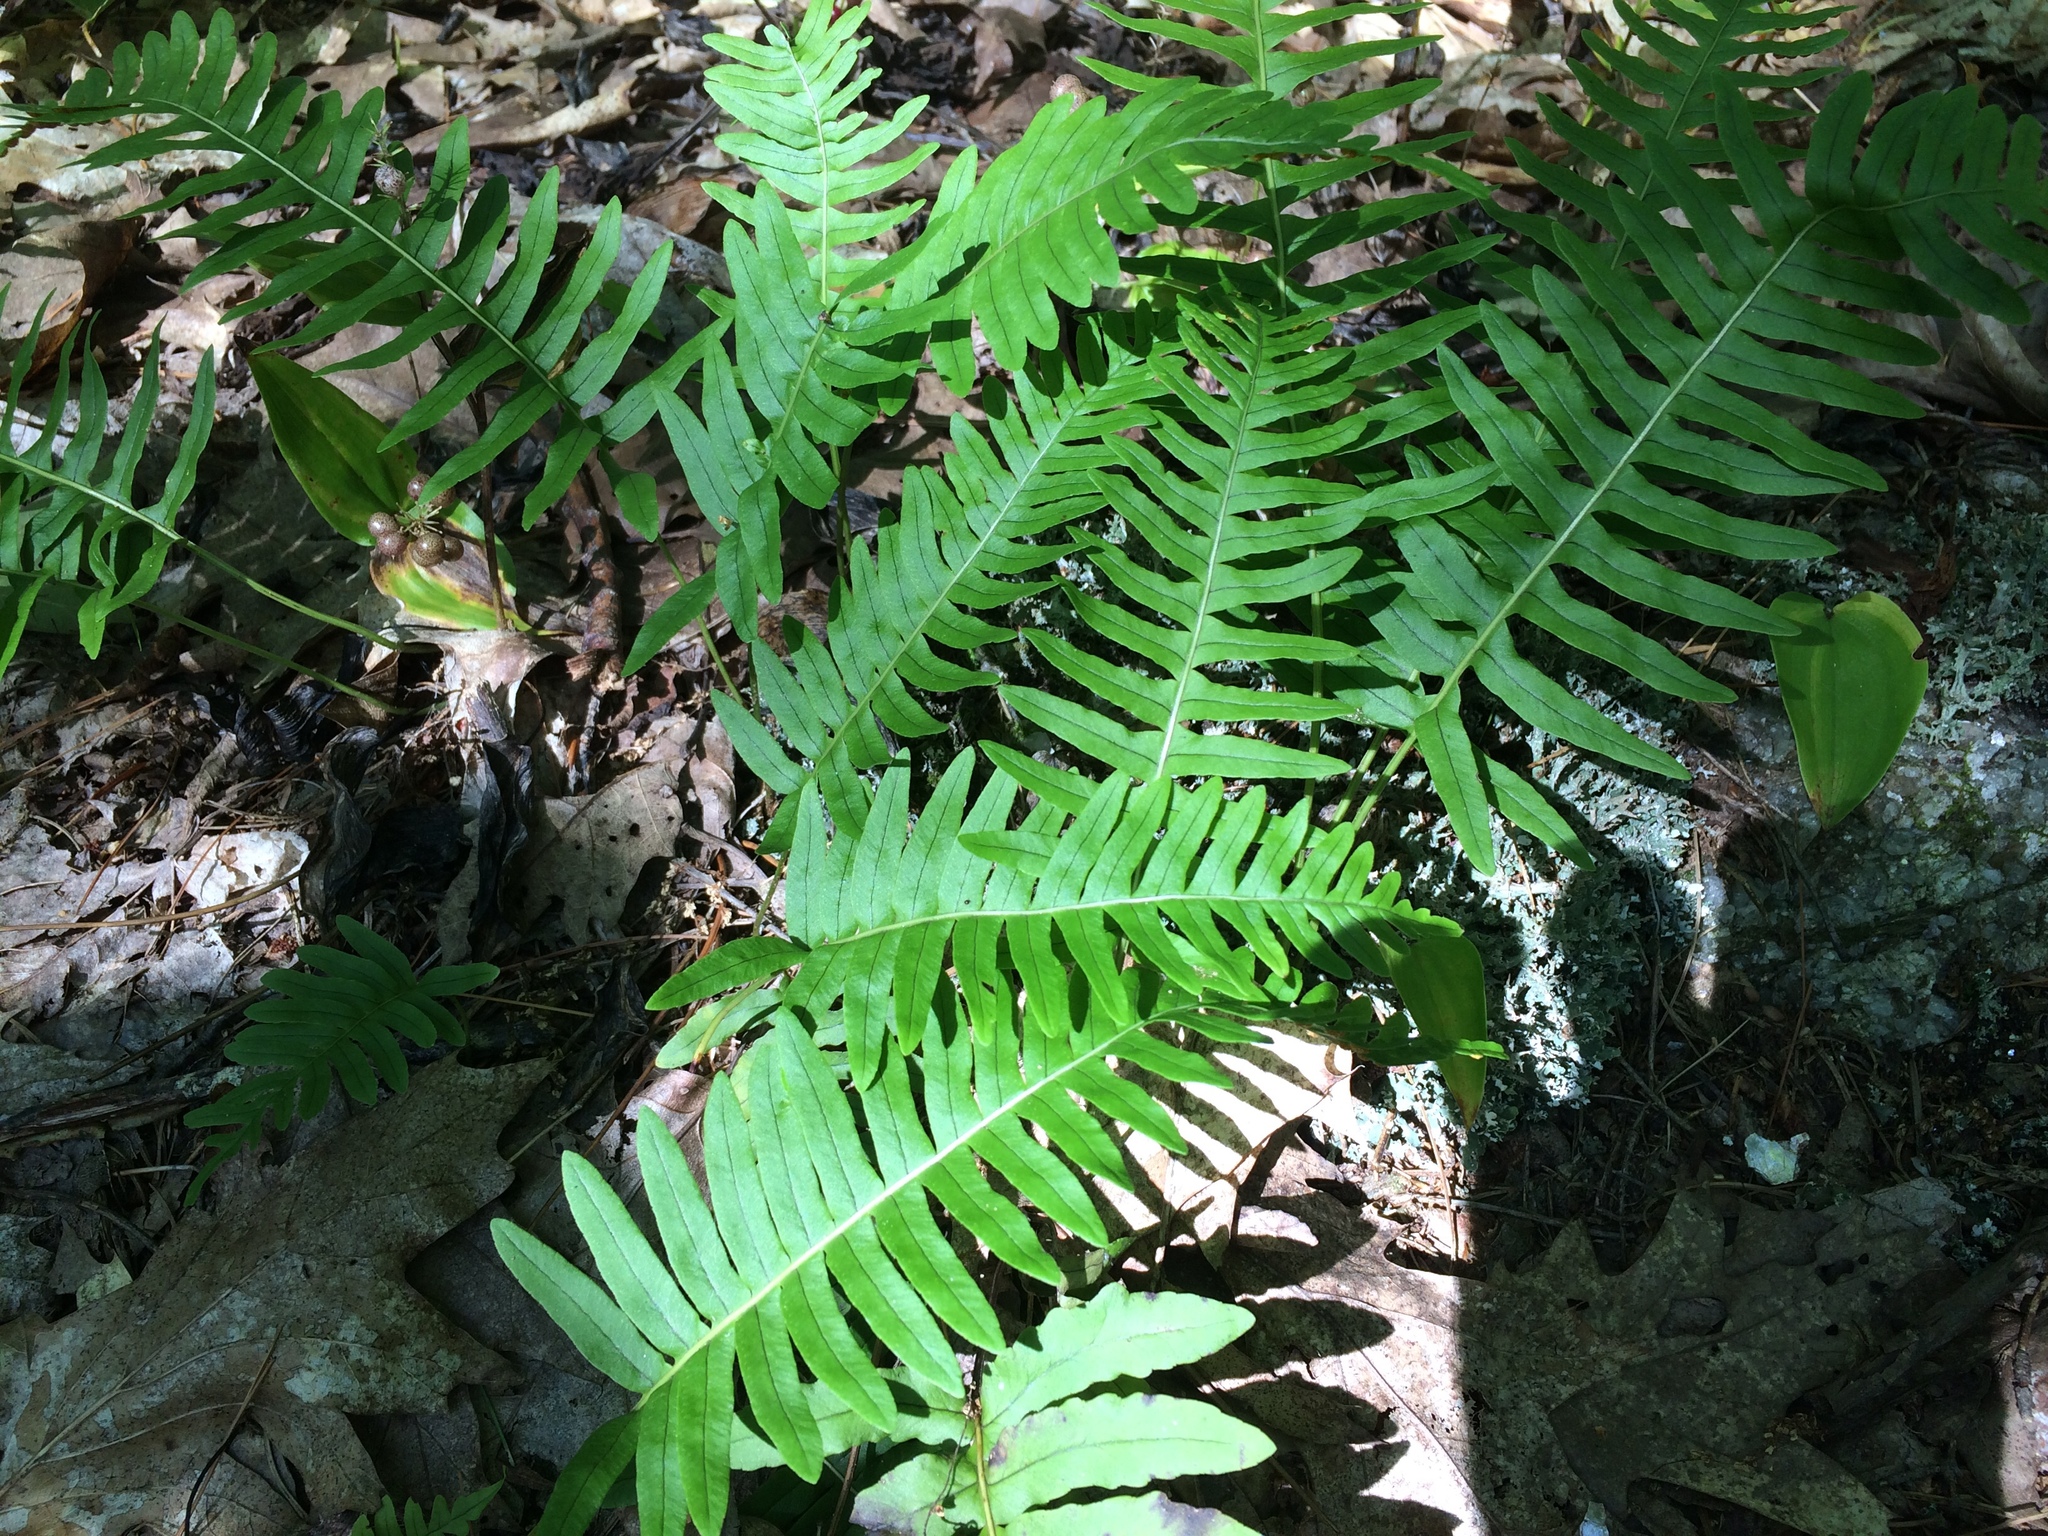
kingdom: Plantae
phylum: Tracheophyta
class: Polypodiopsida
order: Polypodiales
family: Polypodiaceae
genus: Polypodium
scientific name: Polypodium appalachianum
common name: Appalachian polypody
